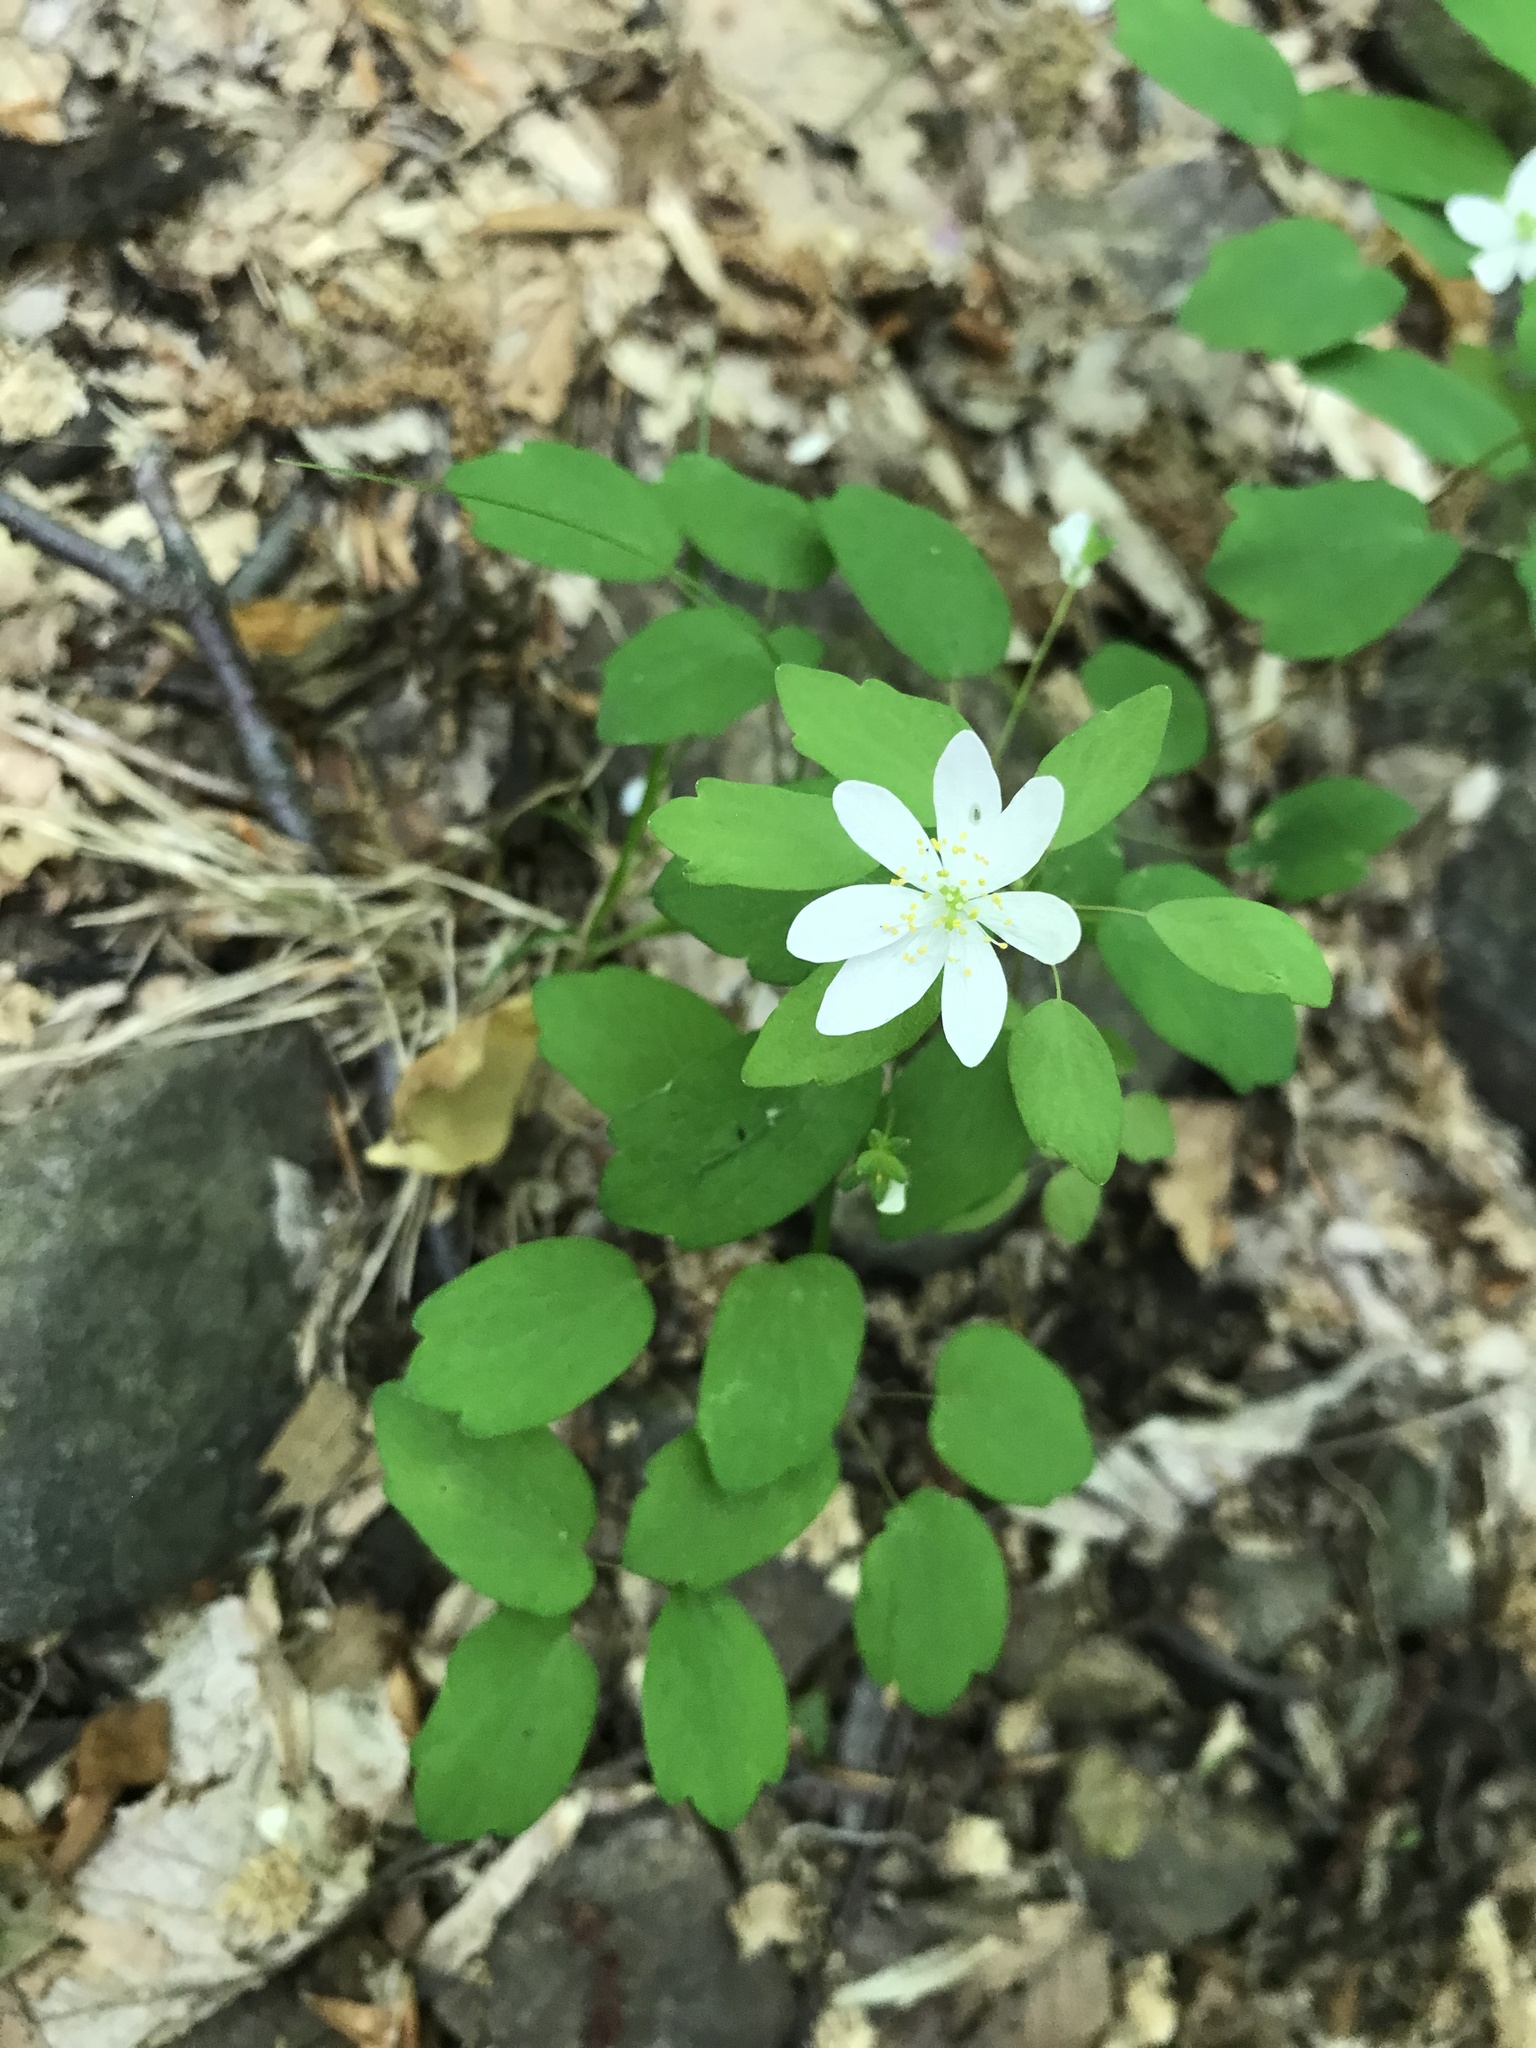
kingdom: Plantae
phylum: Tracheophyta
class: Magnoliopsida
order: Ranunculales
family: Ranunculaceae
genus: Thalictrum
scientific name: Thalictrum thalictroides
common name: Rue-anemone
